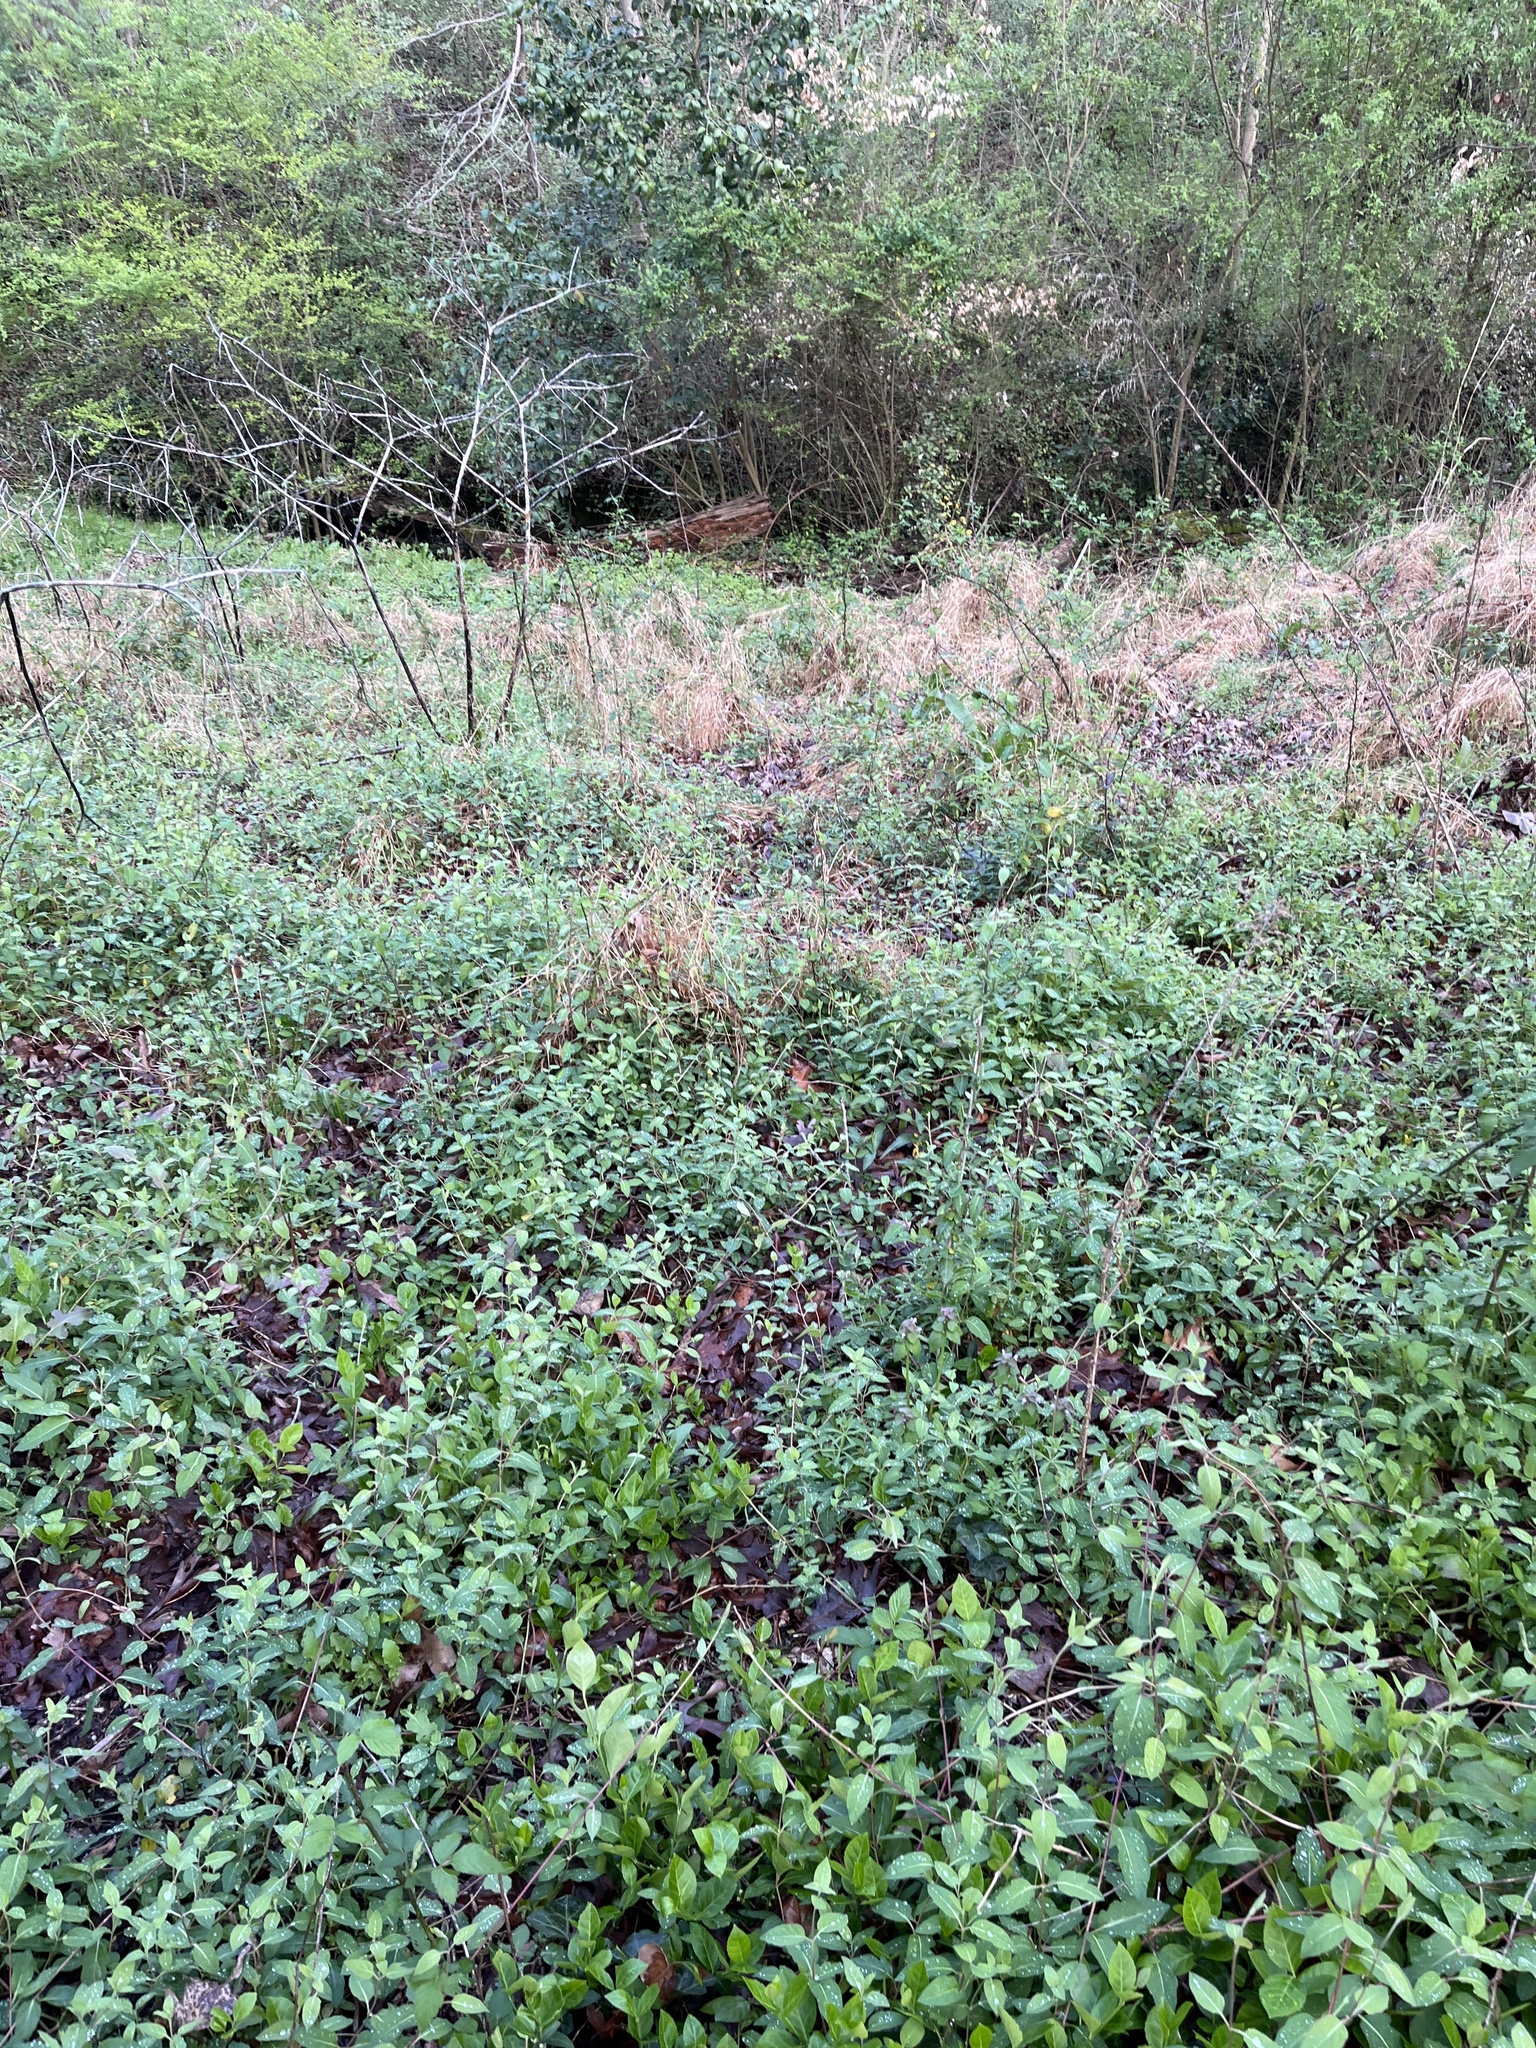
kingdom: Plantae
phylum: Tracheophyta
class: Magnoliopsida
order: Dipsacales
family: Caprifoliaceae
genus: Lonicera
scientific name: Lonicera japonica
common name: Japanese honeysuckle
